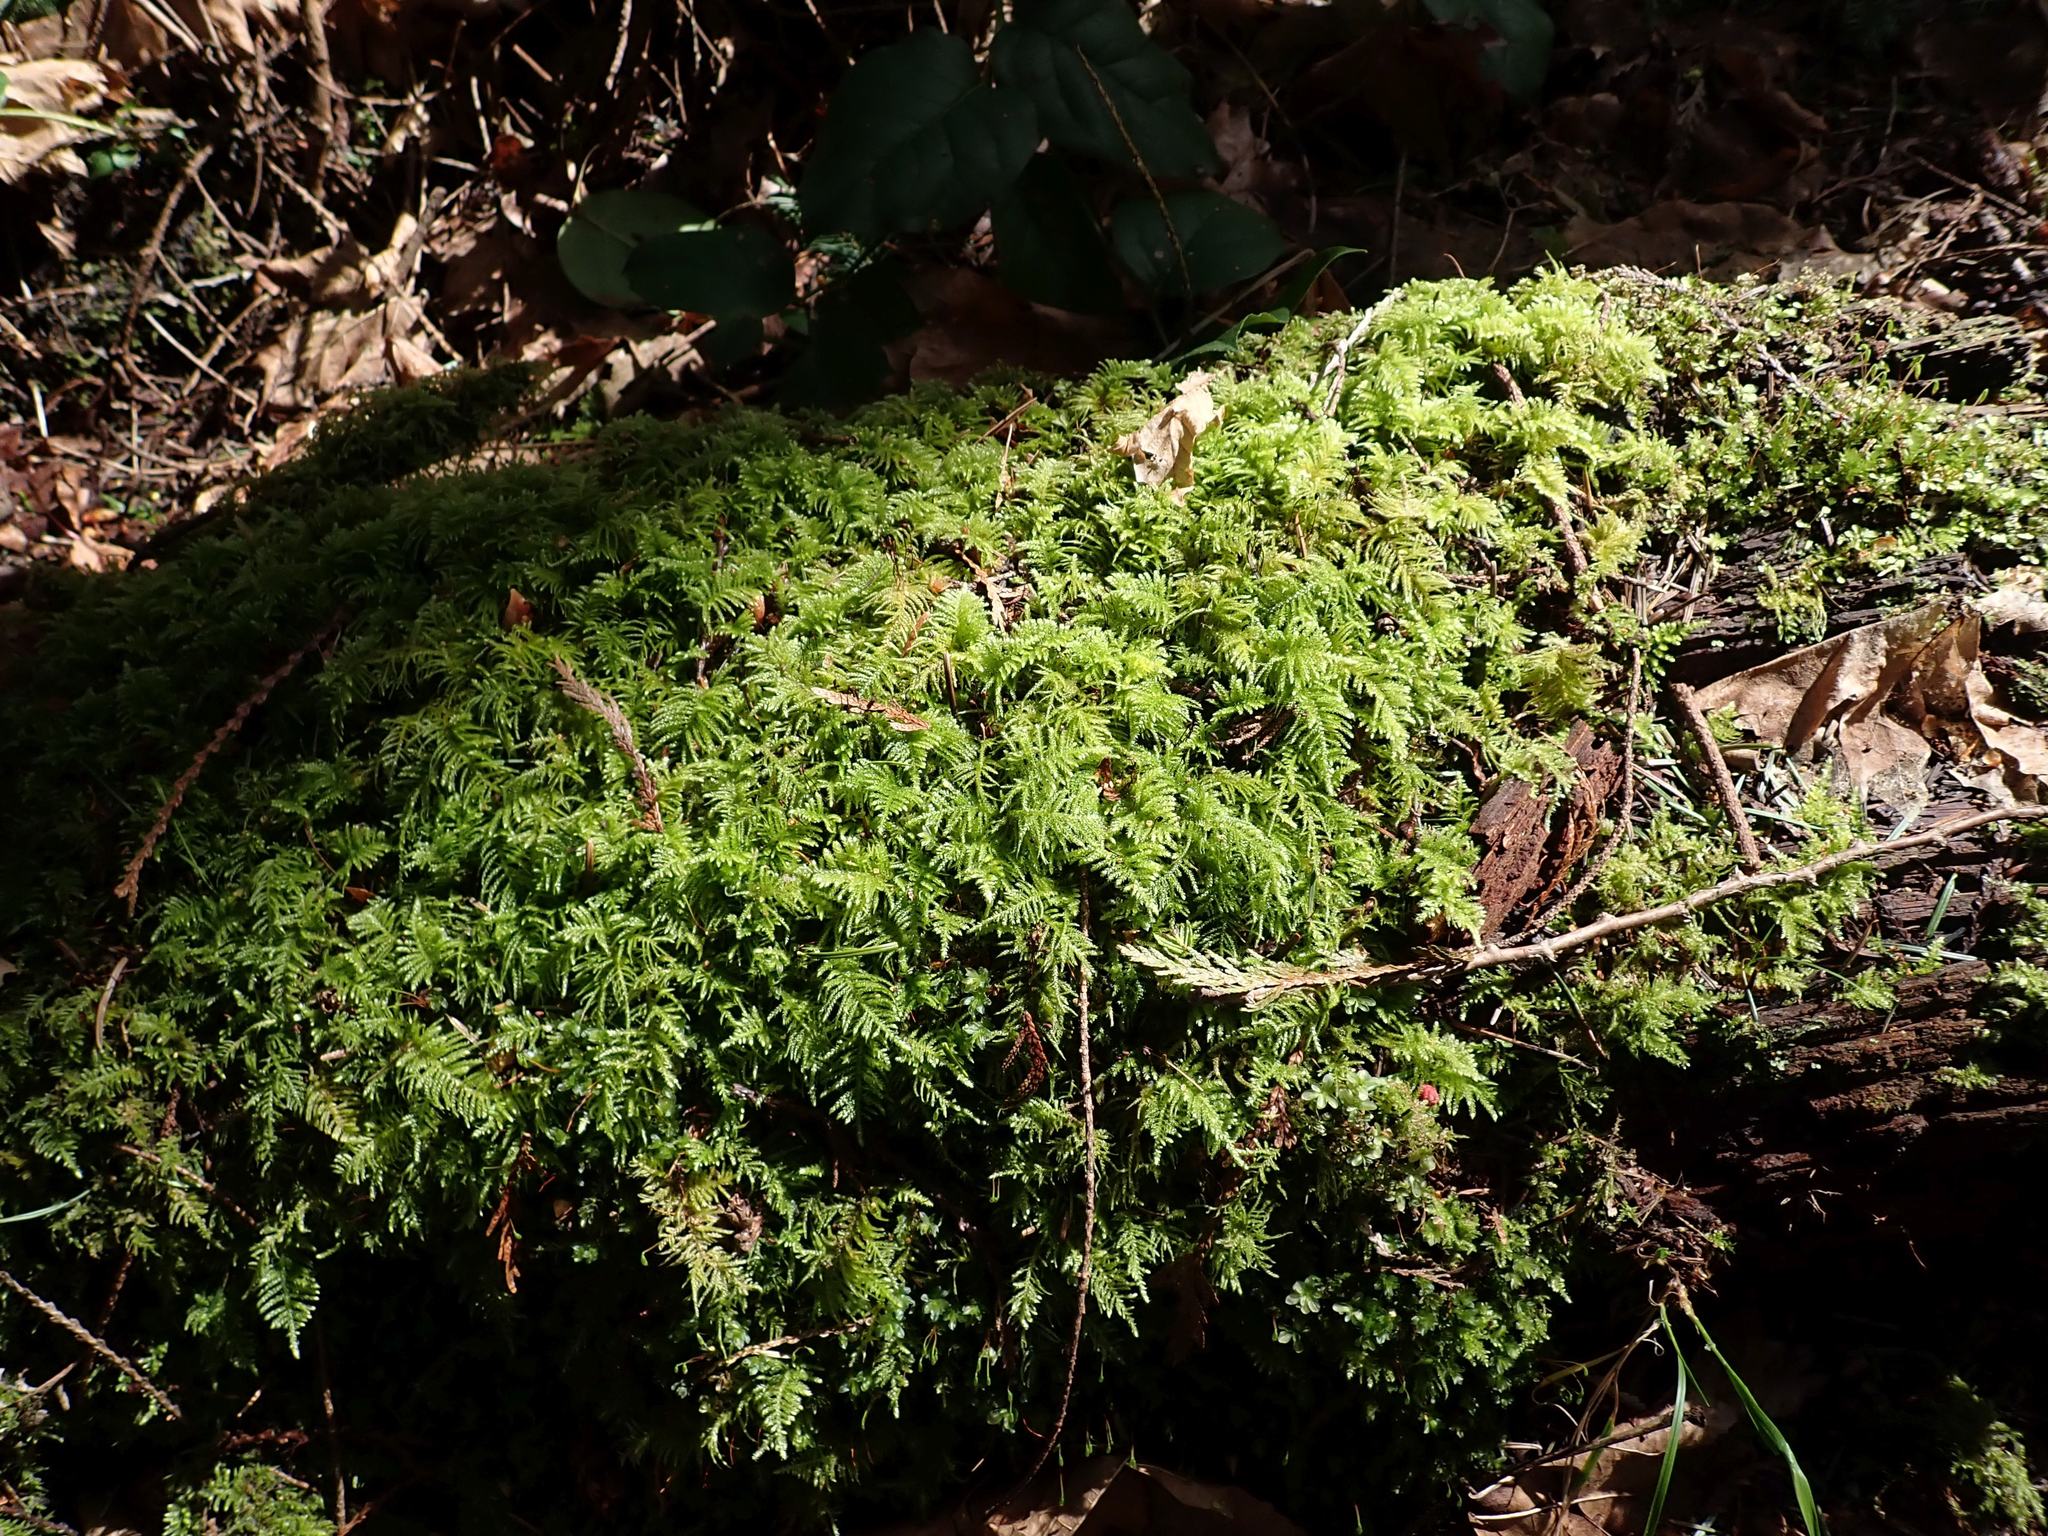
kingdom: Plantae
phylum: Bryophyta
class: Bryopsida
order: Hypnales
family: Brachytheciaceae
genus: Kindbergia
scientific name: Kindbergia oregana
